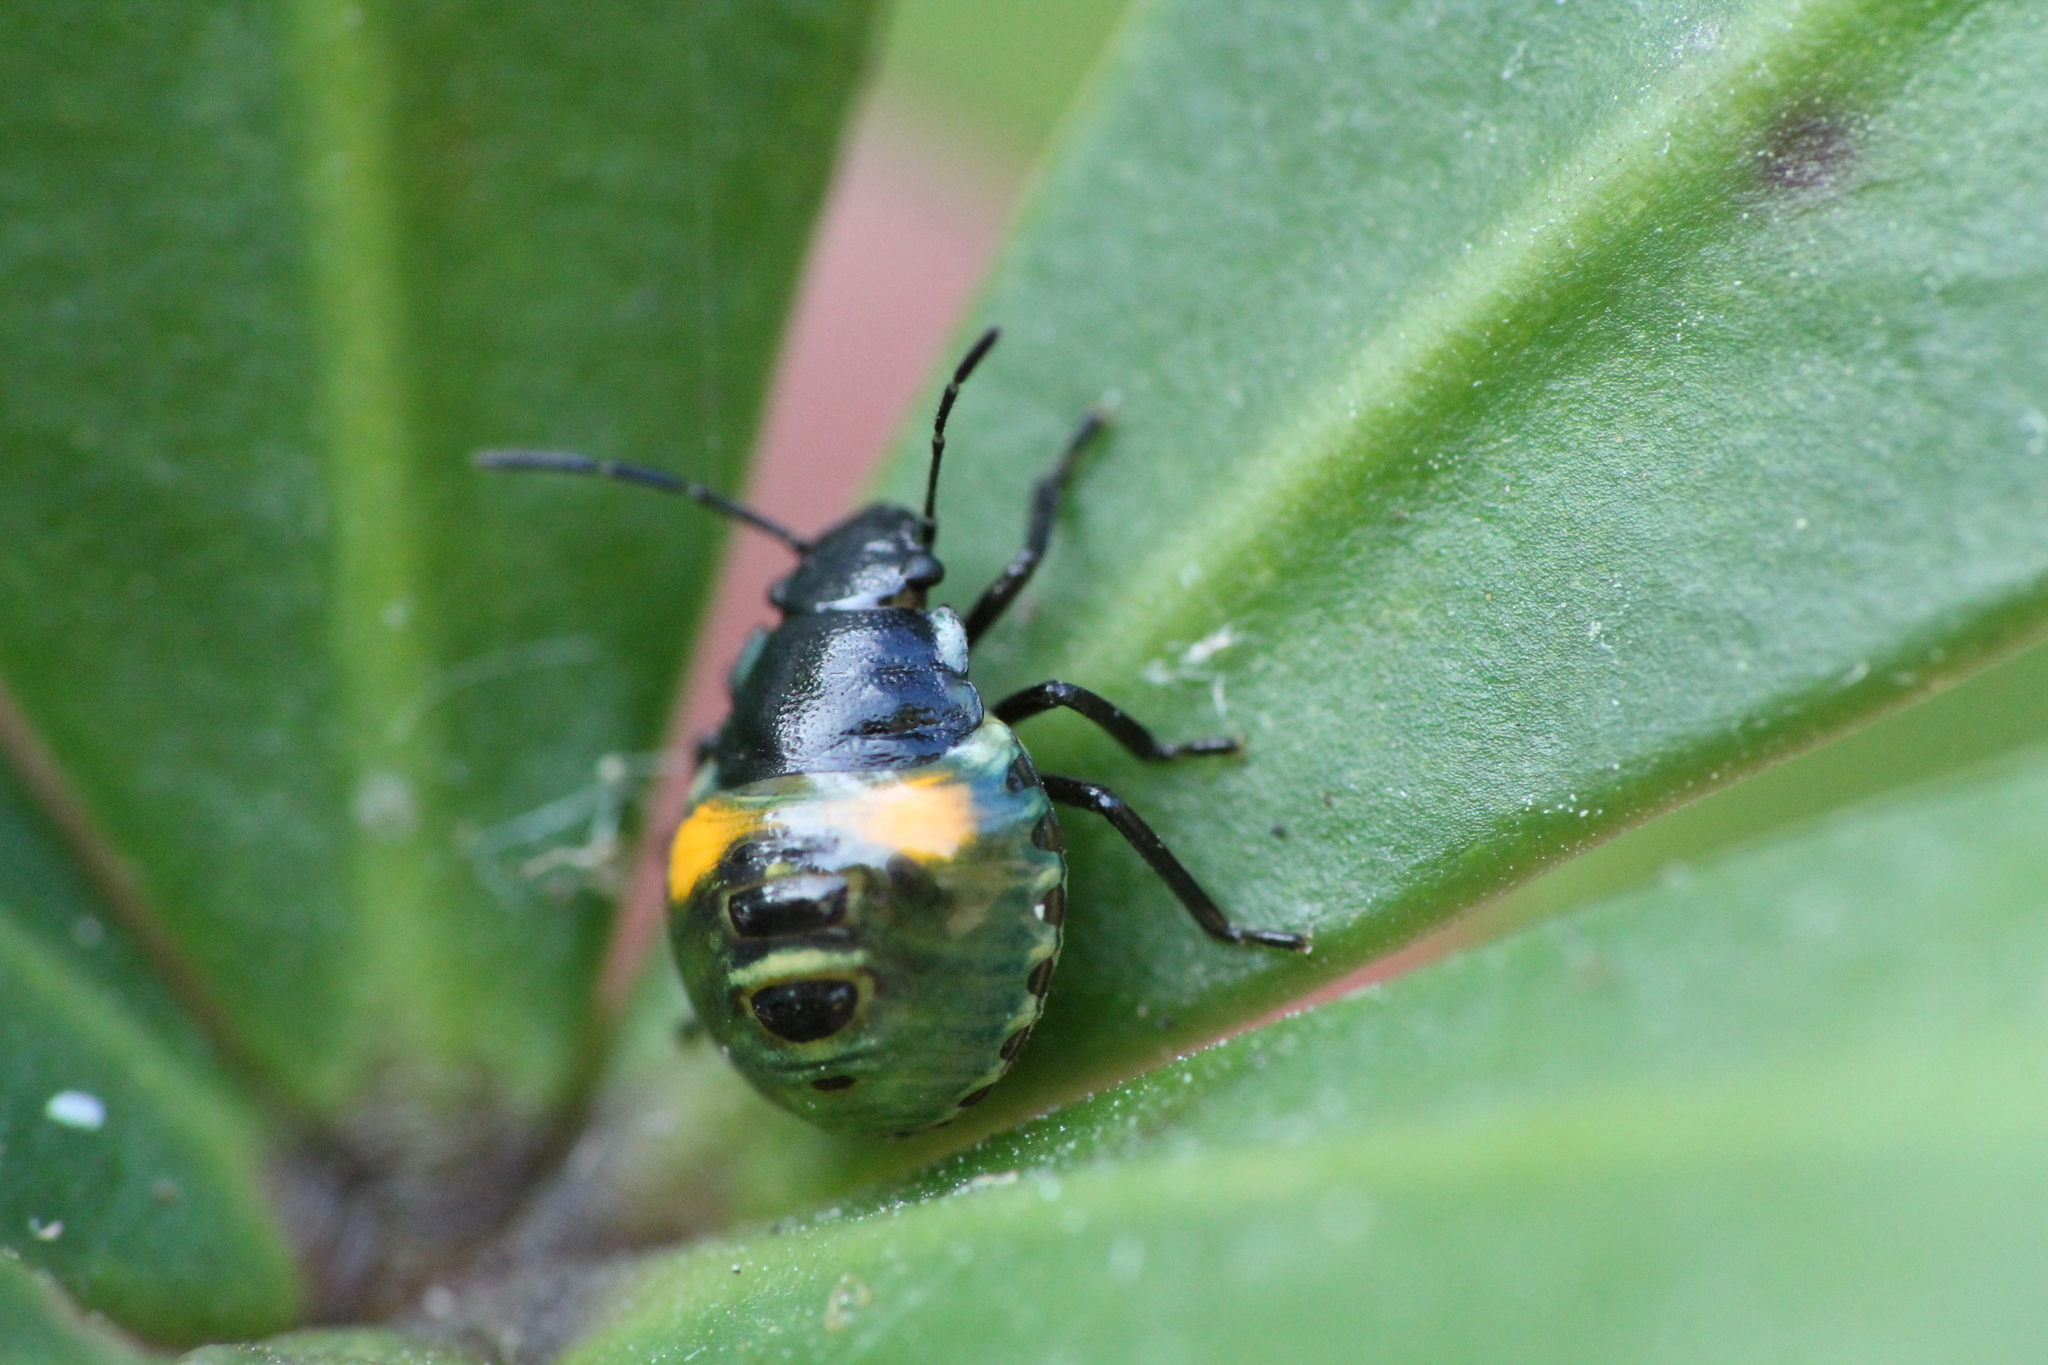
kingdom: Animalia
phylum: Arthropoda
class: Insecta
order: Hemiptera
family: Pentatomidae
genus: Glaucias
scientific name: Glaucias amyota
